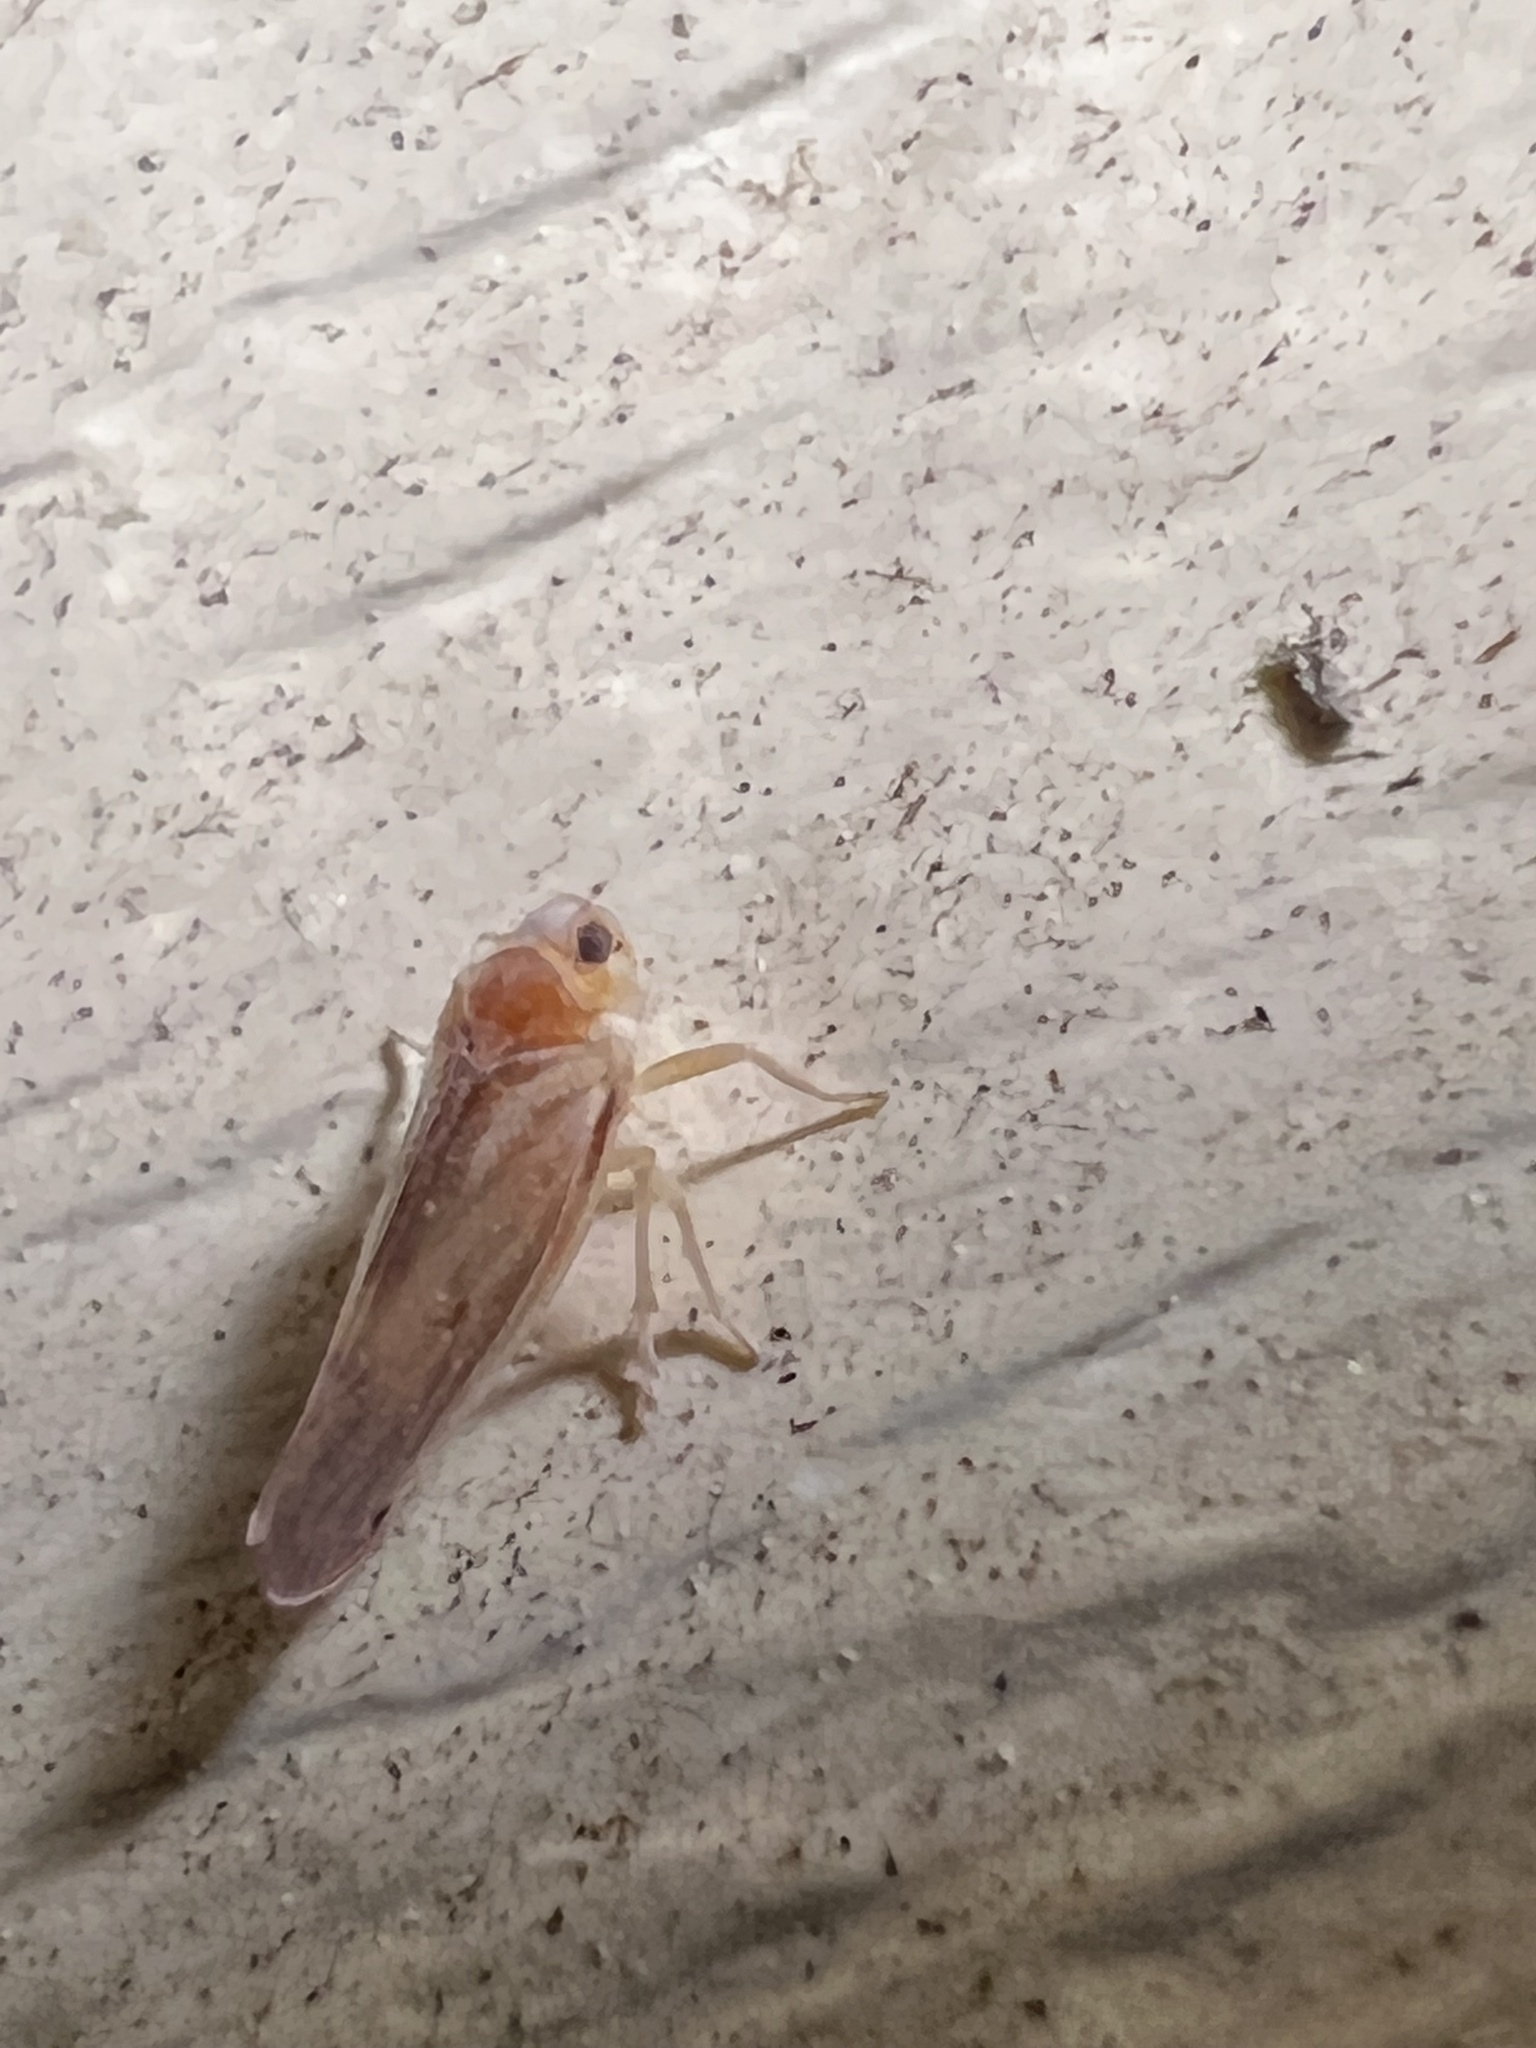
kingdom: Animalia
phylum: Arthropoda
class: Insecta
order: Hemiptera
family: Derbidae
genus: Omolicna
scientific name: Omolicna uhleri
